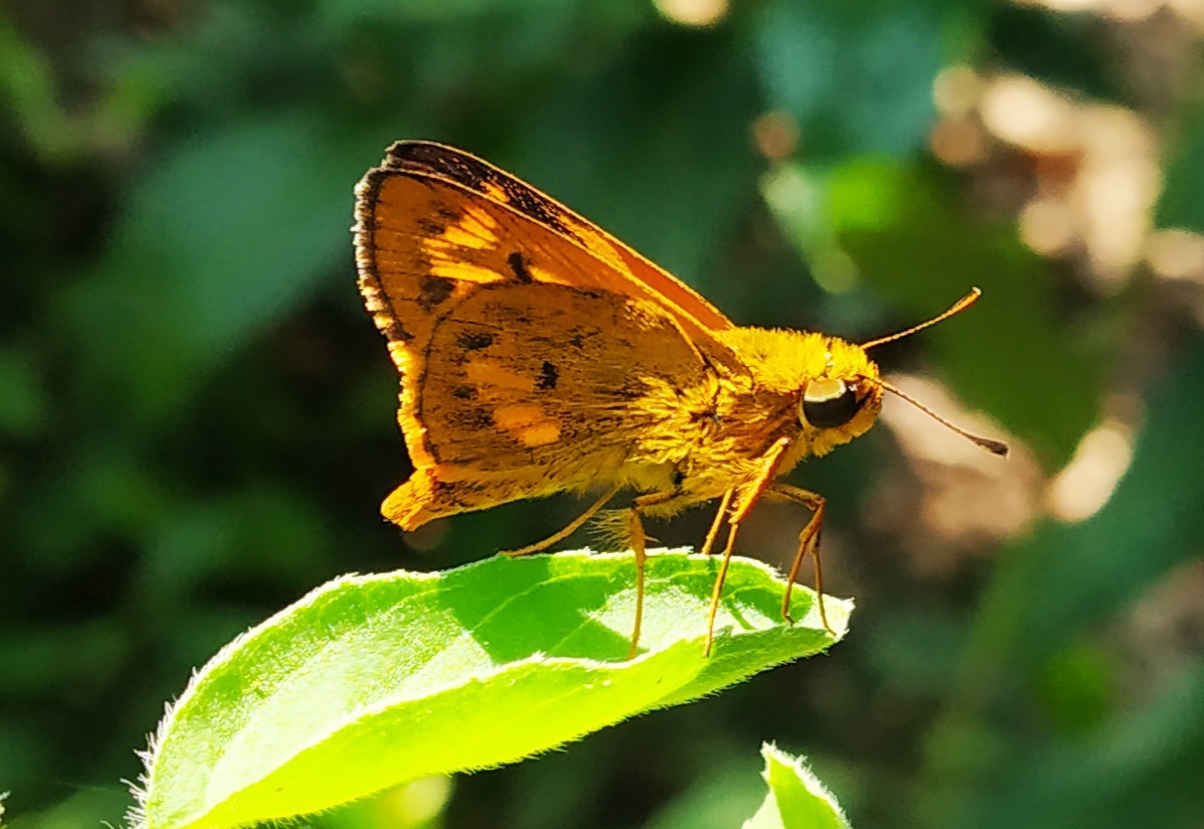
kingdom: Animalia
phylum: Arthropoda
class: Insecta
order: Lepidoptera
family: Hesperiidae
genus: Oriens
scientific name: Oriens goloides
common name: Smaller dartlet
